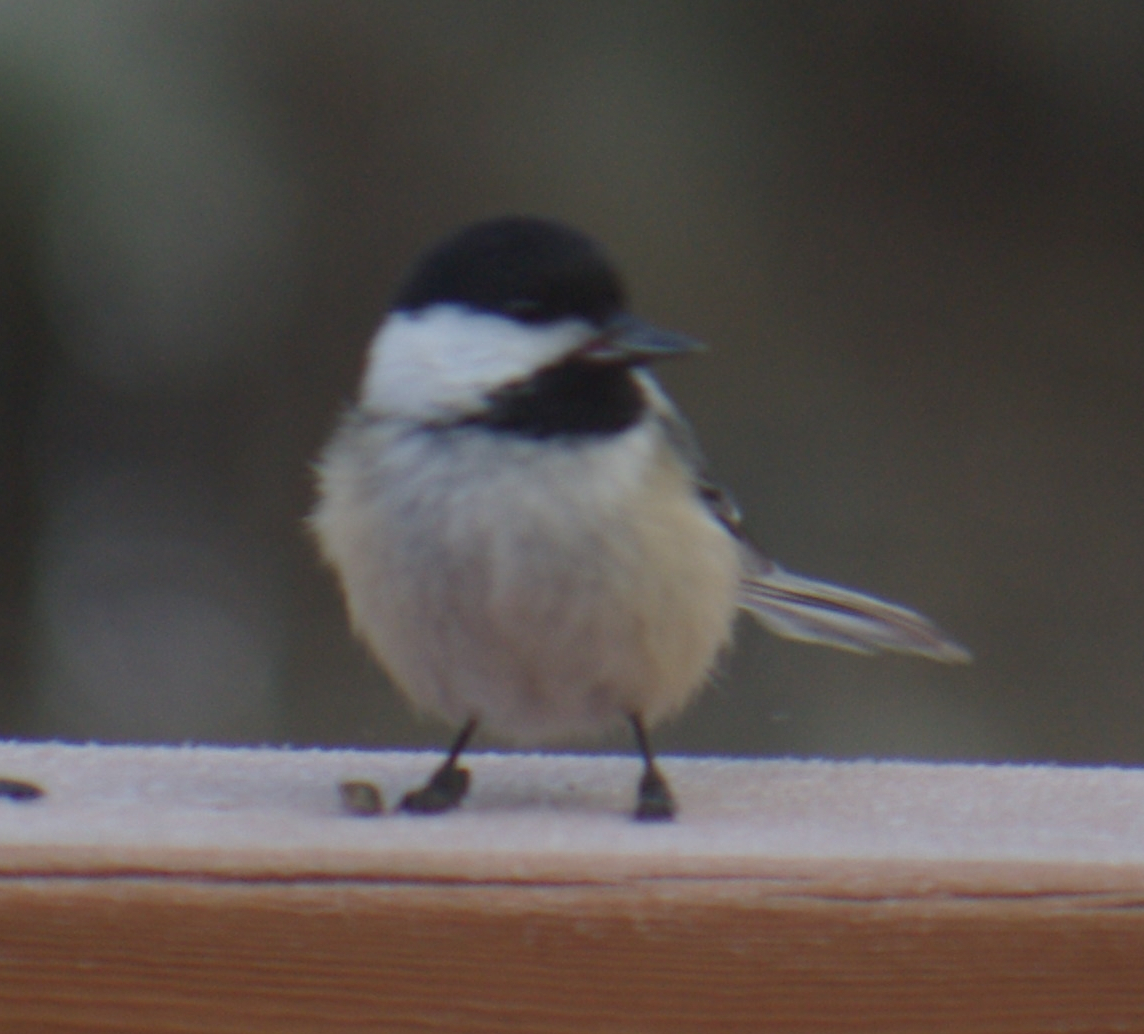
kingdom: Animalia
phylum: Chordata
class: Aves
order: Passeriformes
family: Paridae
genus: Poecile
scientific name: Poecile atricapillus
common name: Black-capped chickadee
